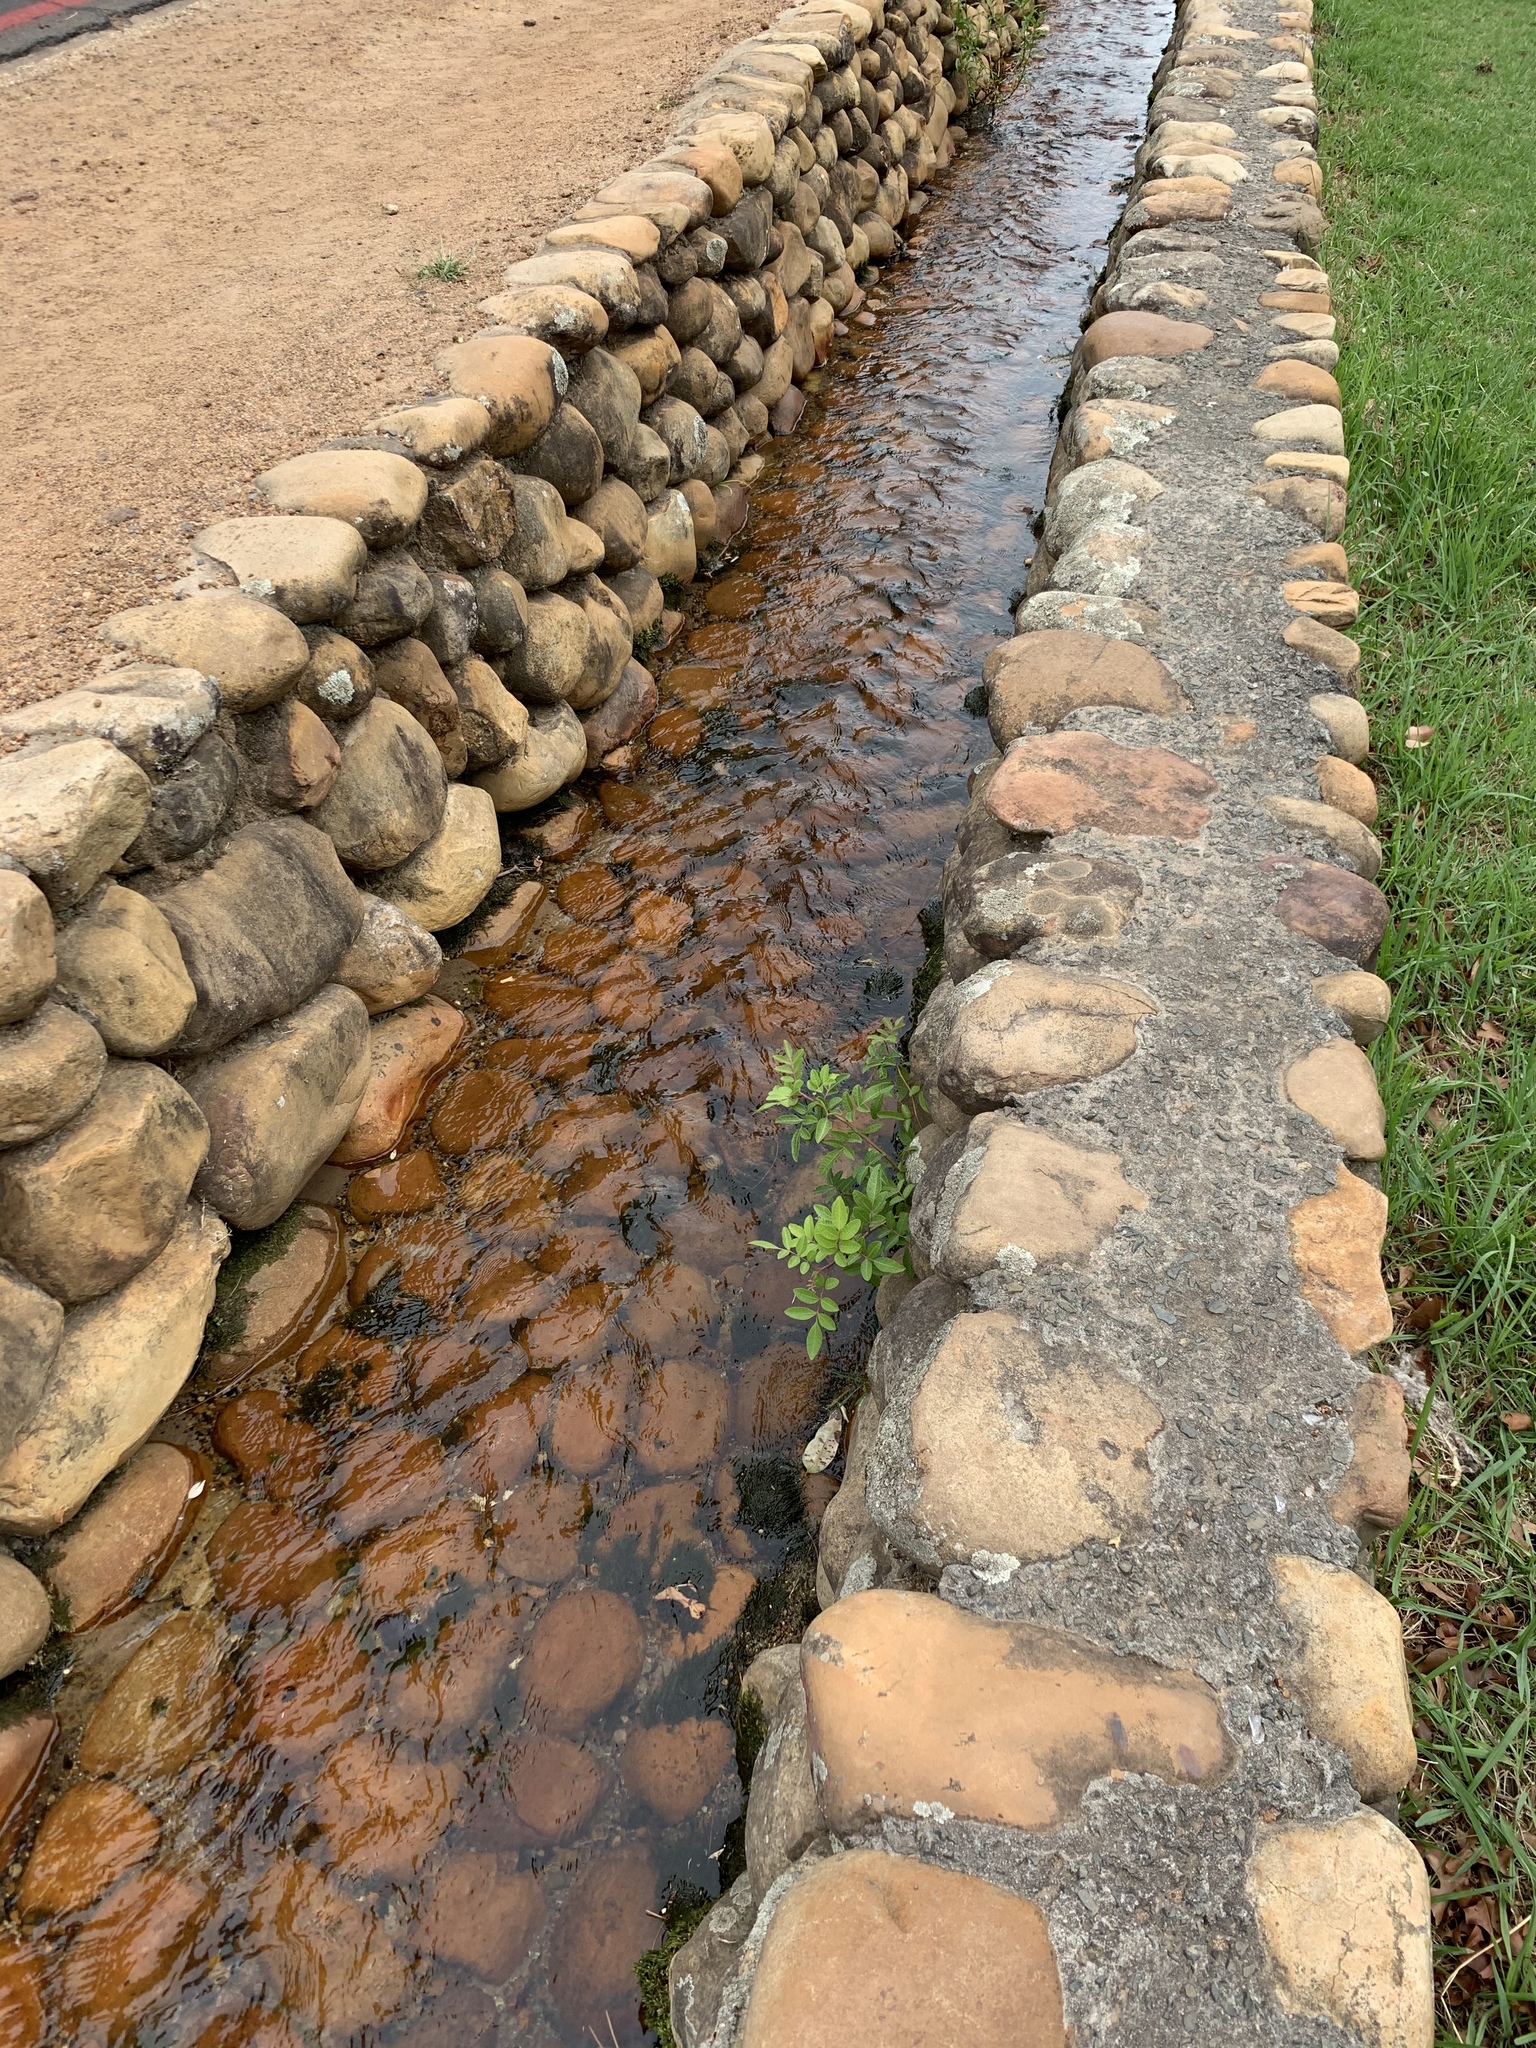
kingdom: Plantae
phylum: Tracheophyta
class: Magnoliopsida
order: Sapindales
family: Anacardiaceae
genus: Schinus
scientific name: Schinus terebinthifolia
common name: Brazilian peppertree
